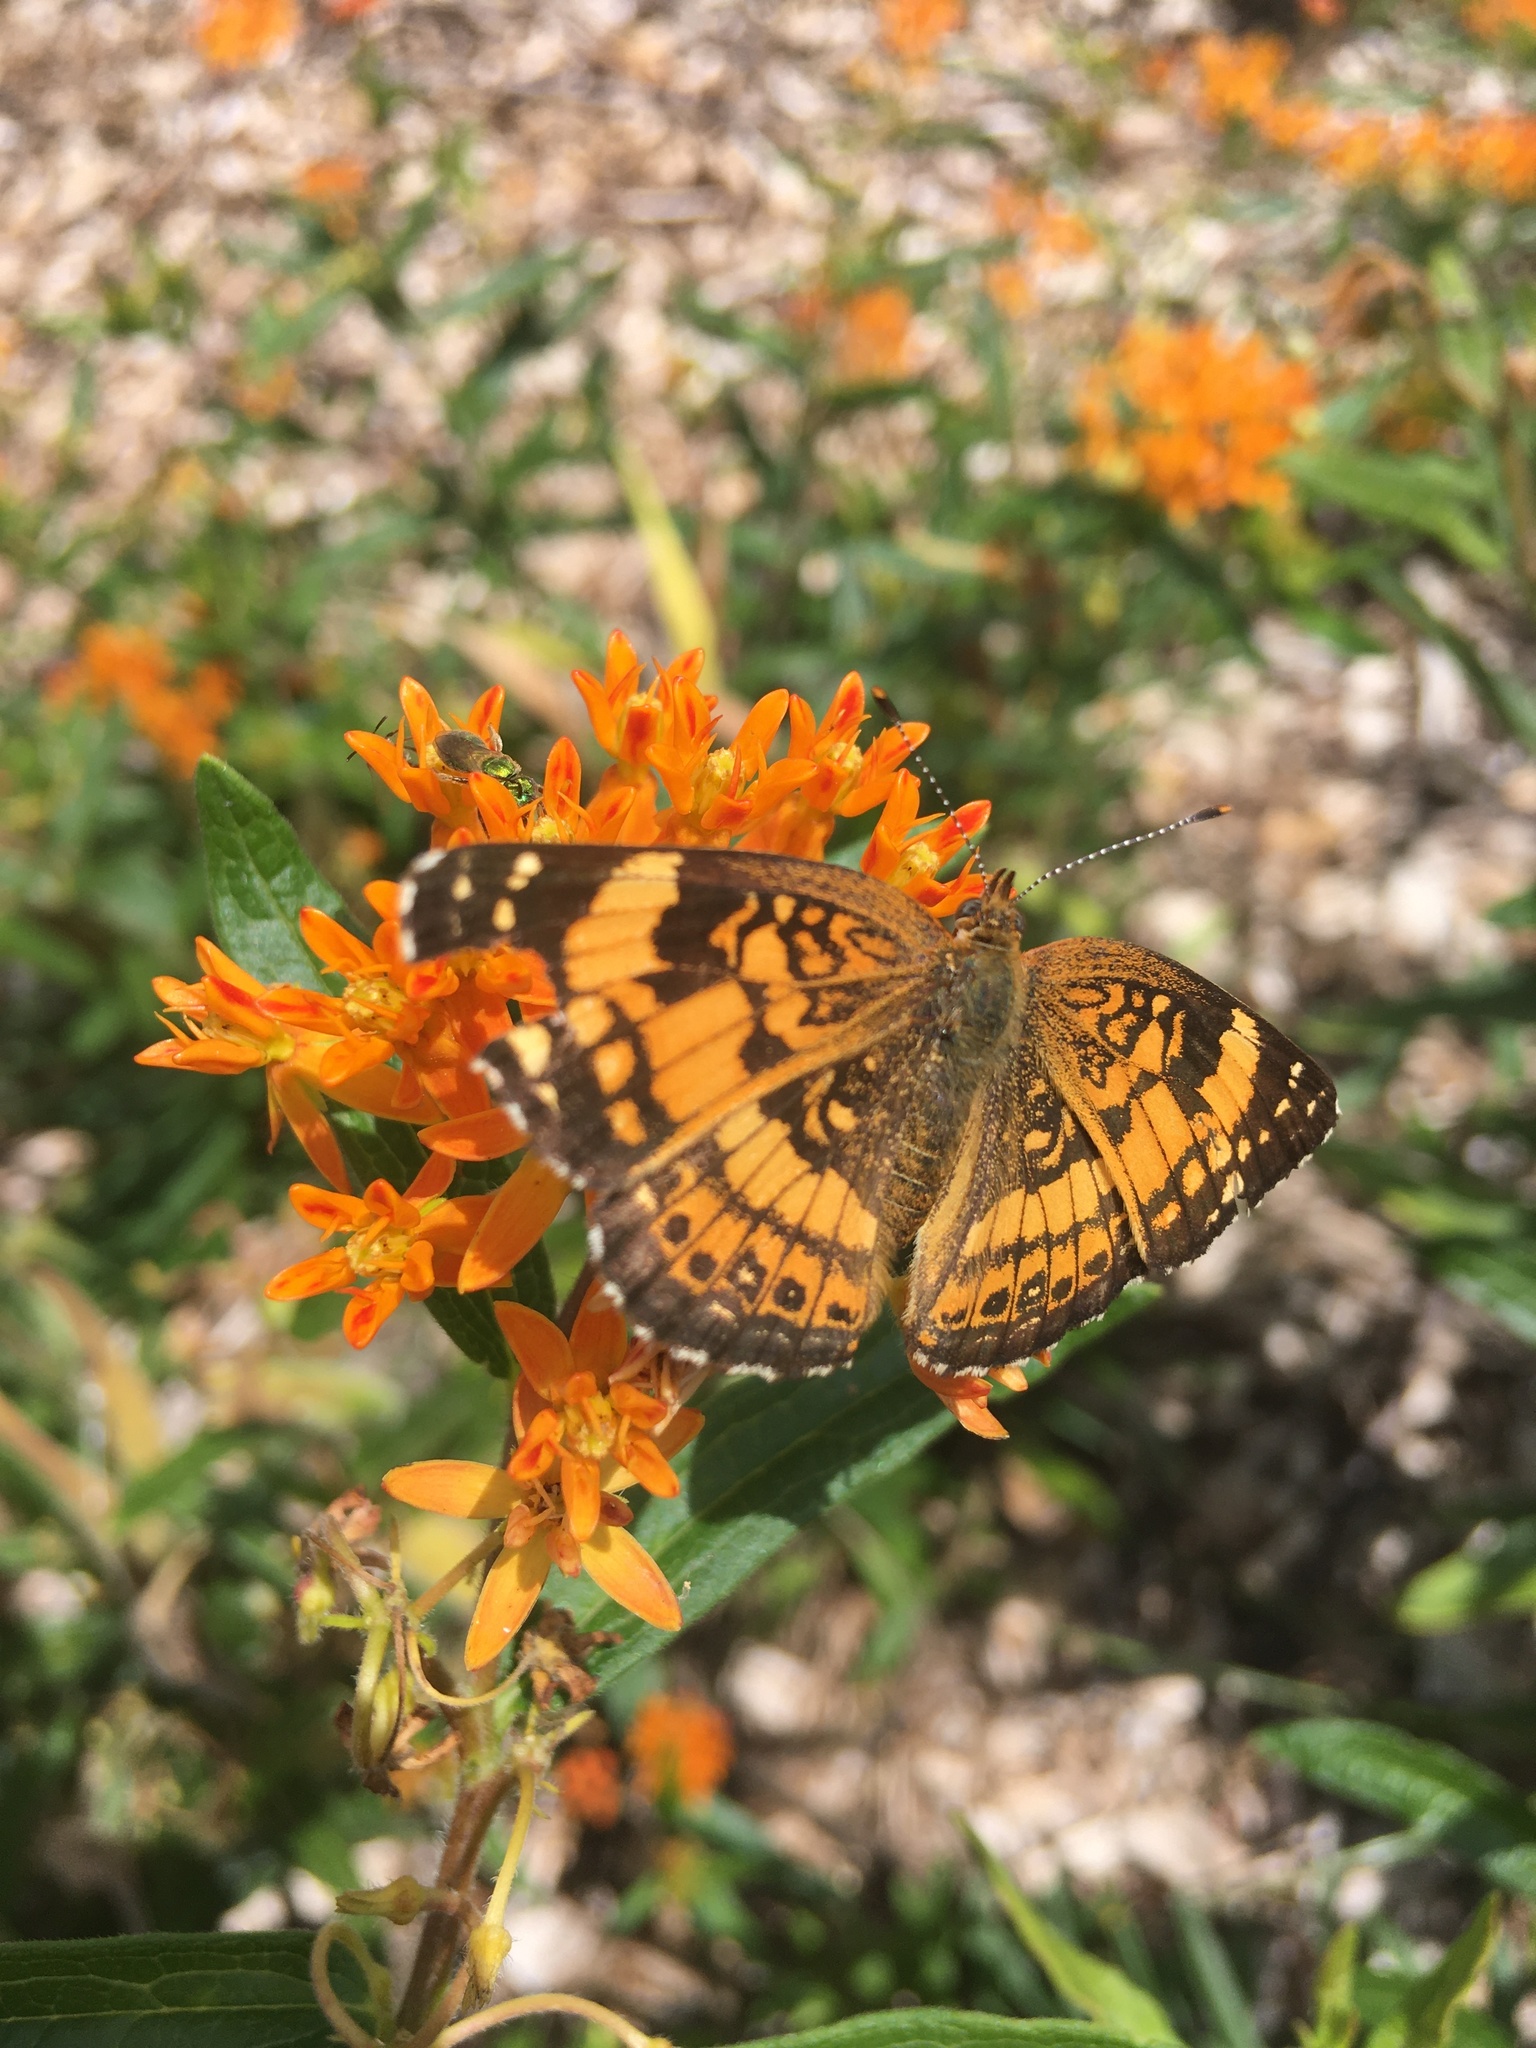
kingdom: Animalia
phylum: Arthropoda
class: Insecta
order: Lepidoptera
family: Nymphalidae
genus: Chlosyne
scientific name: Chlosyne nycteis
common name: Silvery checkerspot
